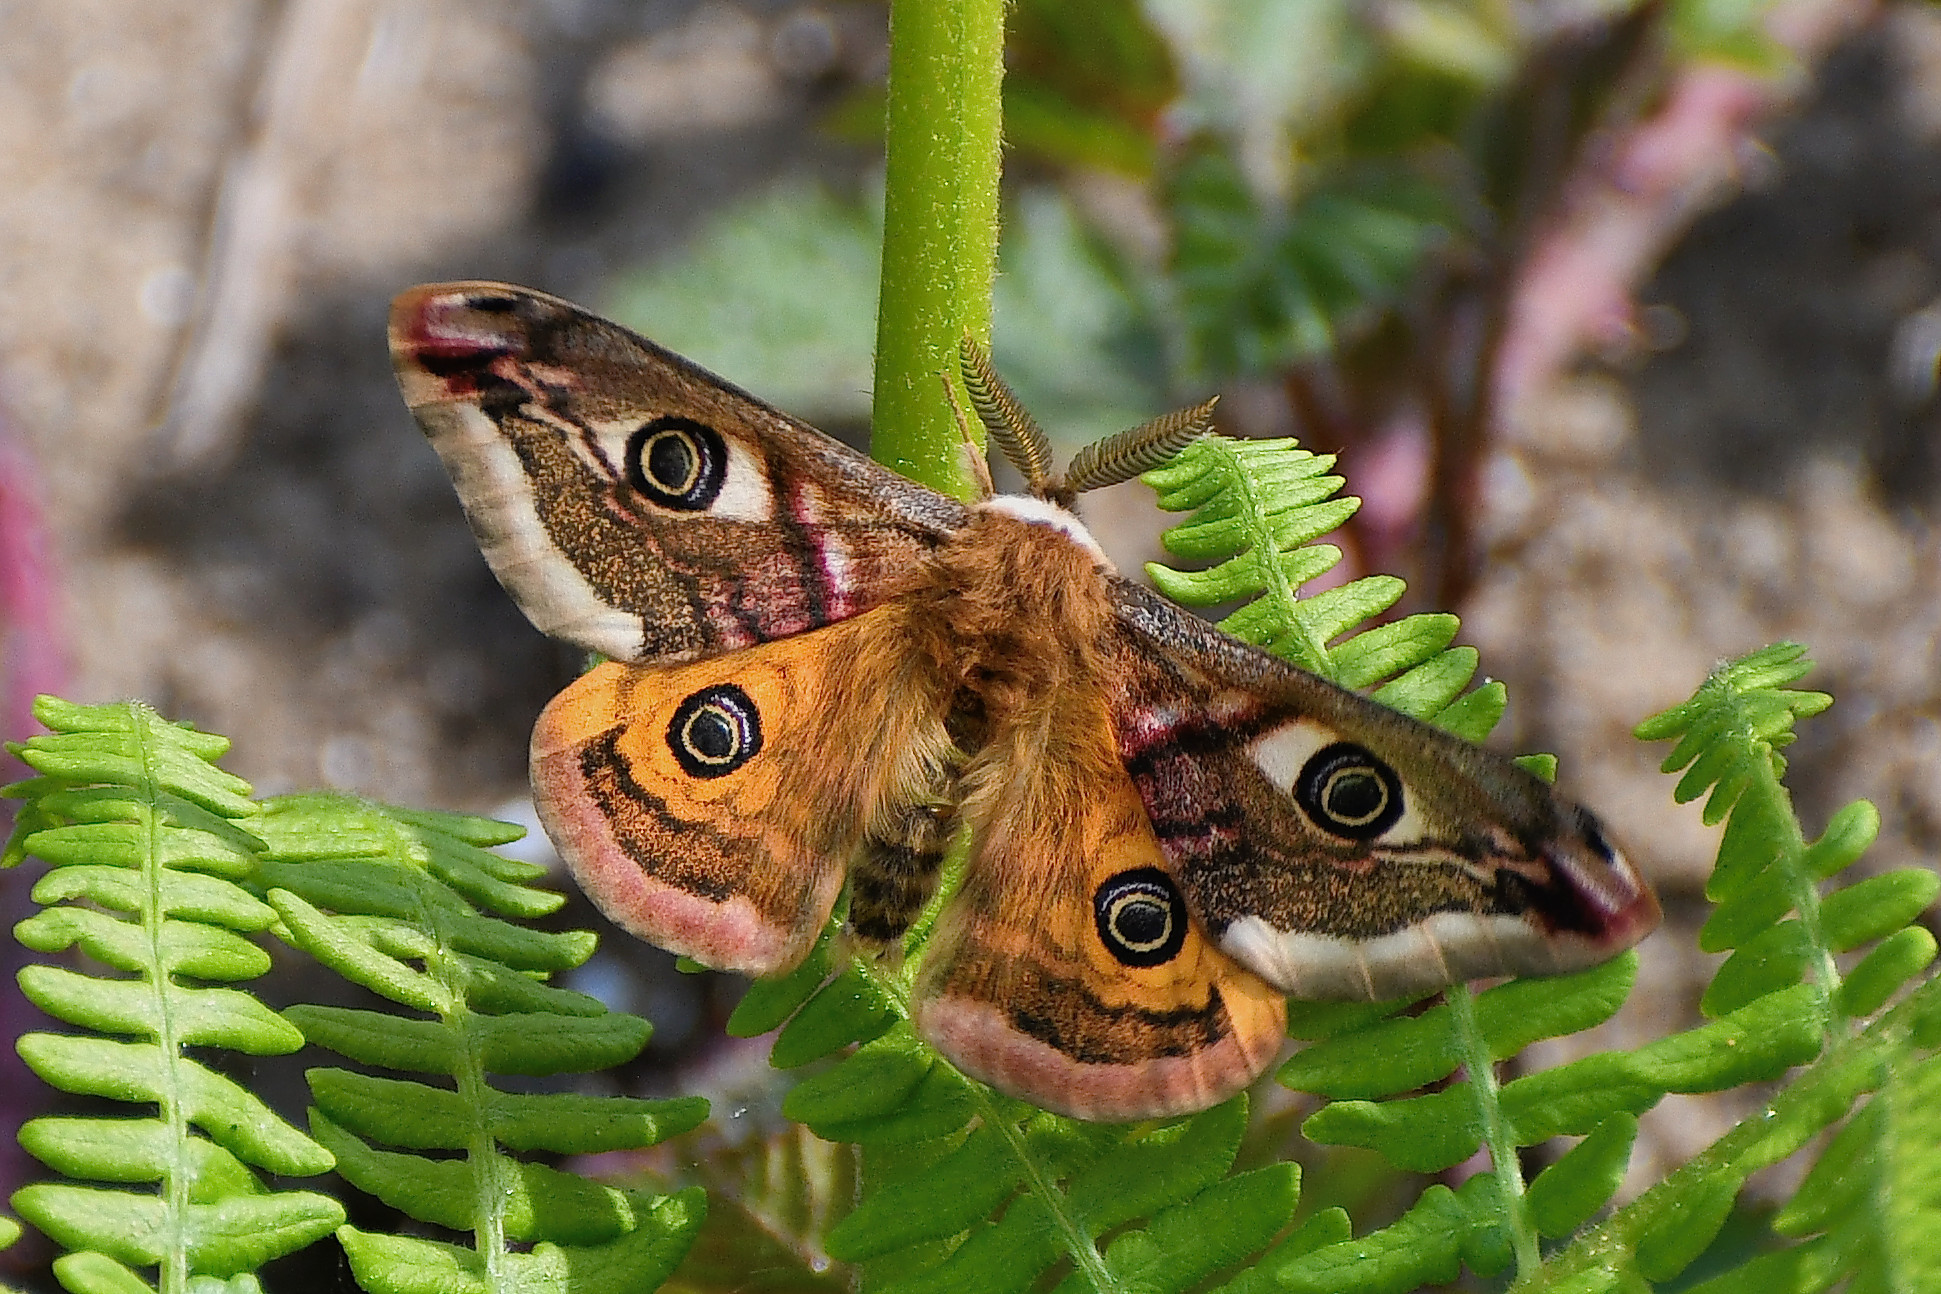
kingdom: Animalia
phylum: Arthropoda
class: Insecta
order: Lepidoptera
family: Saturniidae
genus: Saturnia
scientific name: Saturnia pavonia
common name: Emperor moth
